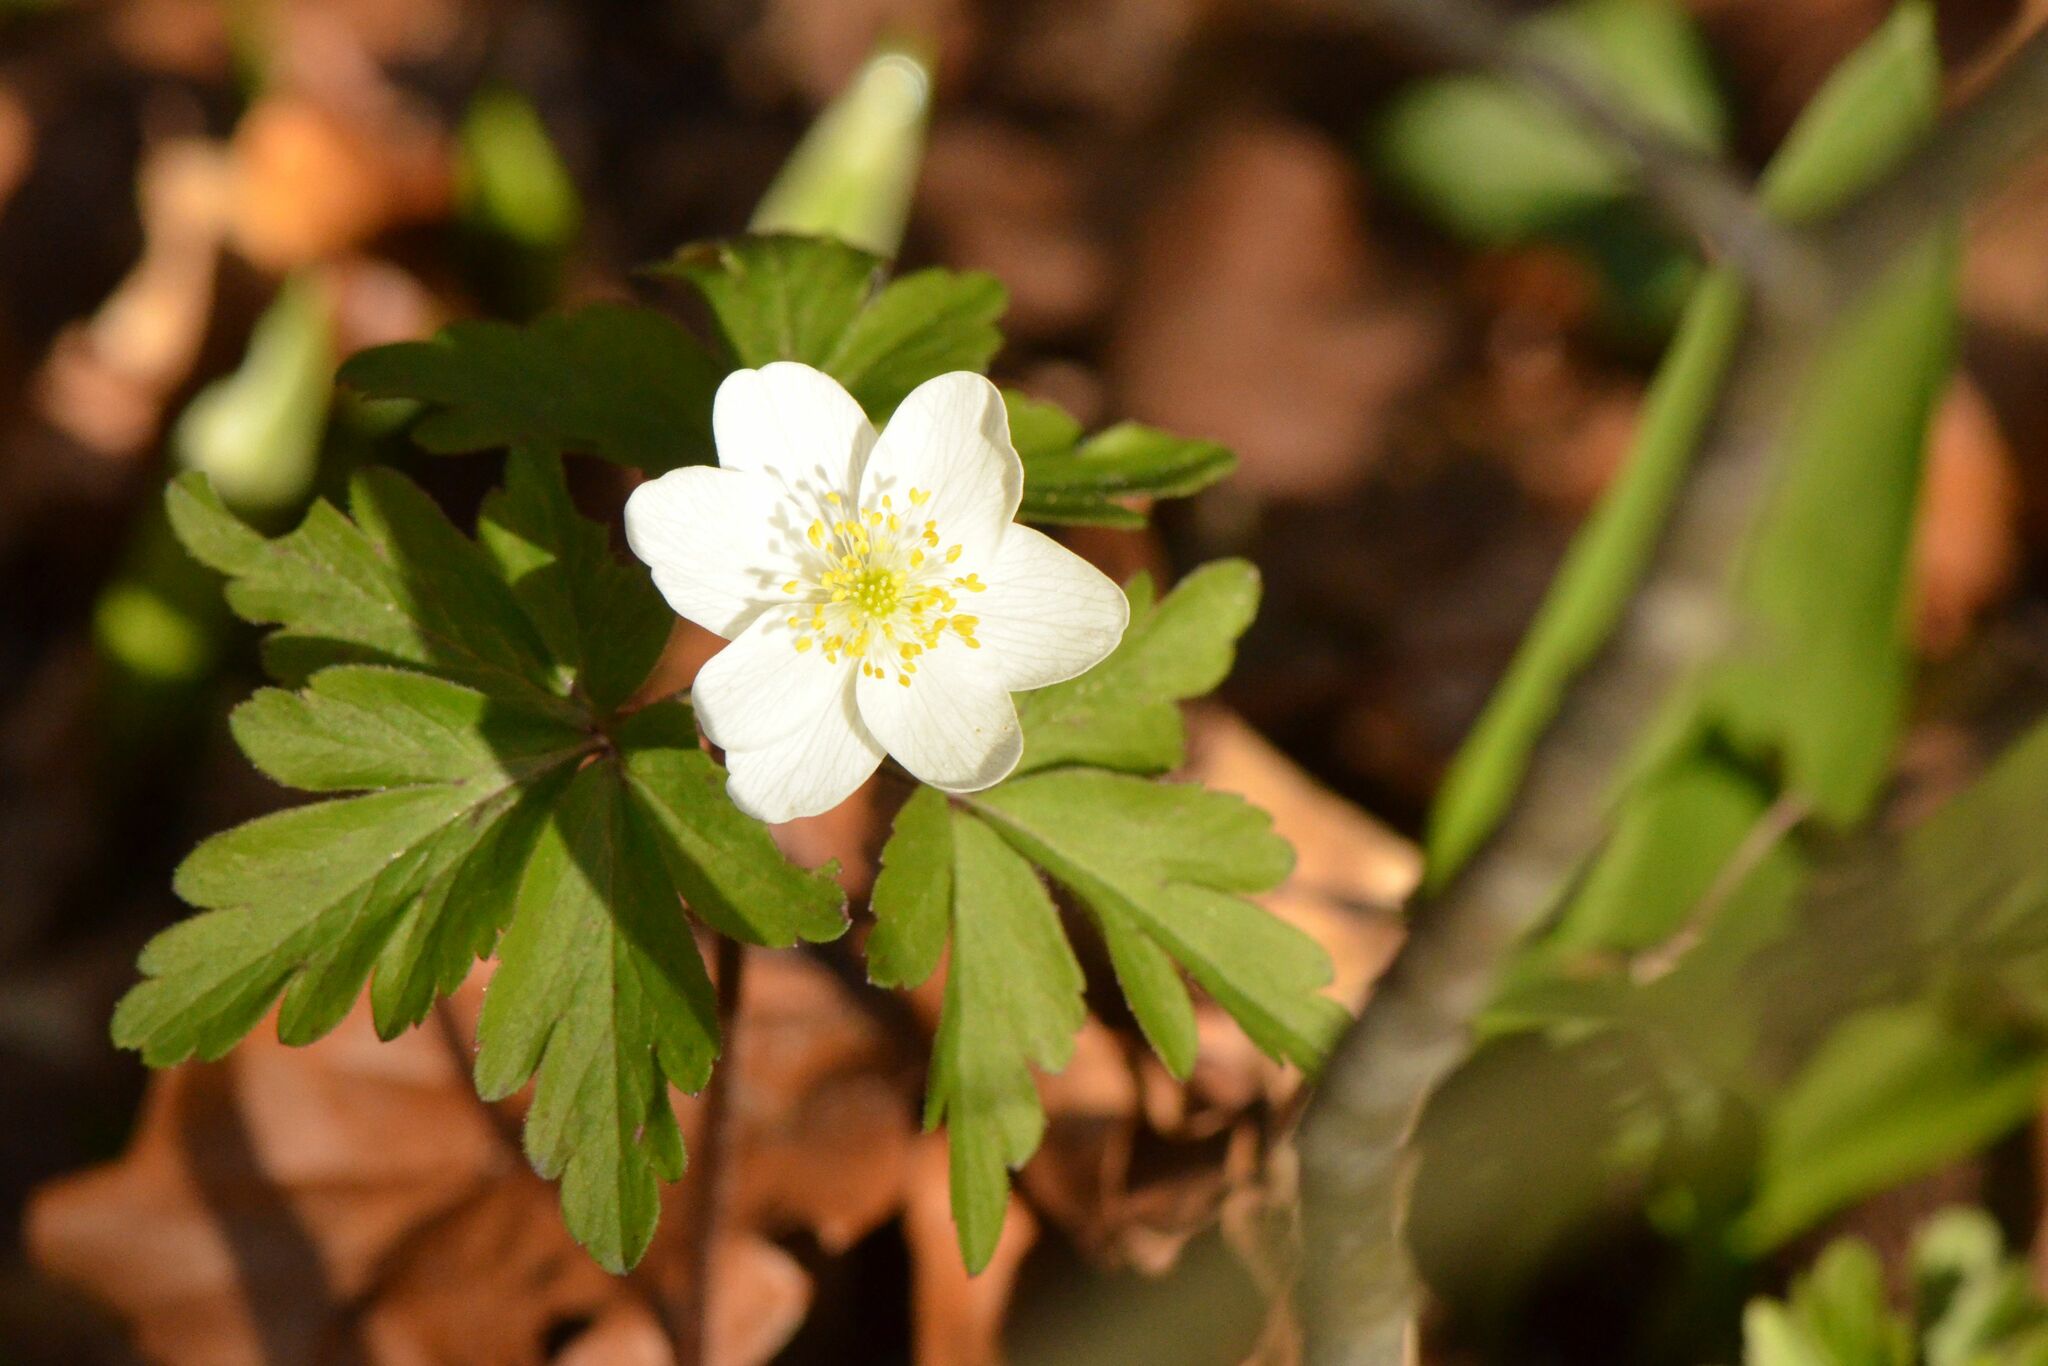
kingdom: Plantae
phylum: Tracheophyta
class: Magnoliopsida
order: Ranunculales
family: Ranunculaceae
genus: Anemone
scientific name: Anemone nemorosa
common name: Wood anemone
